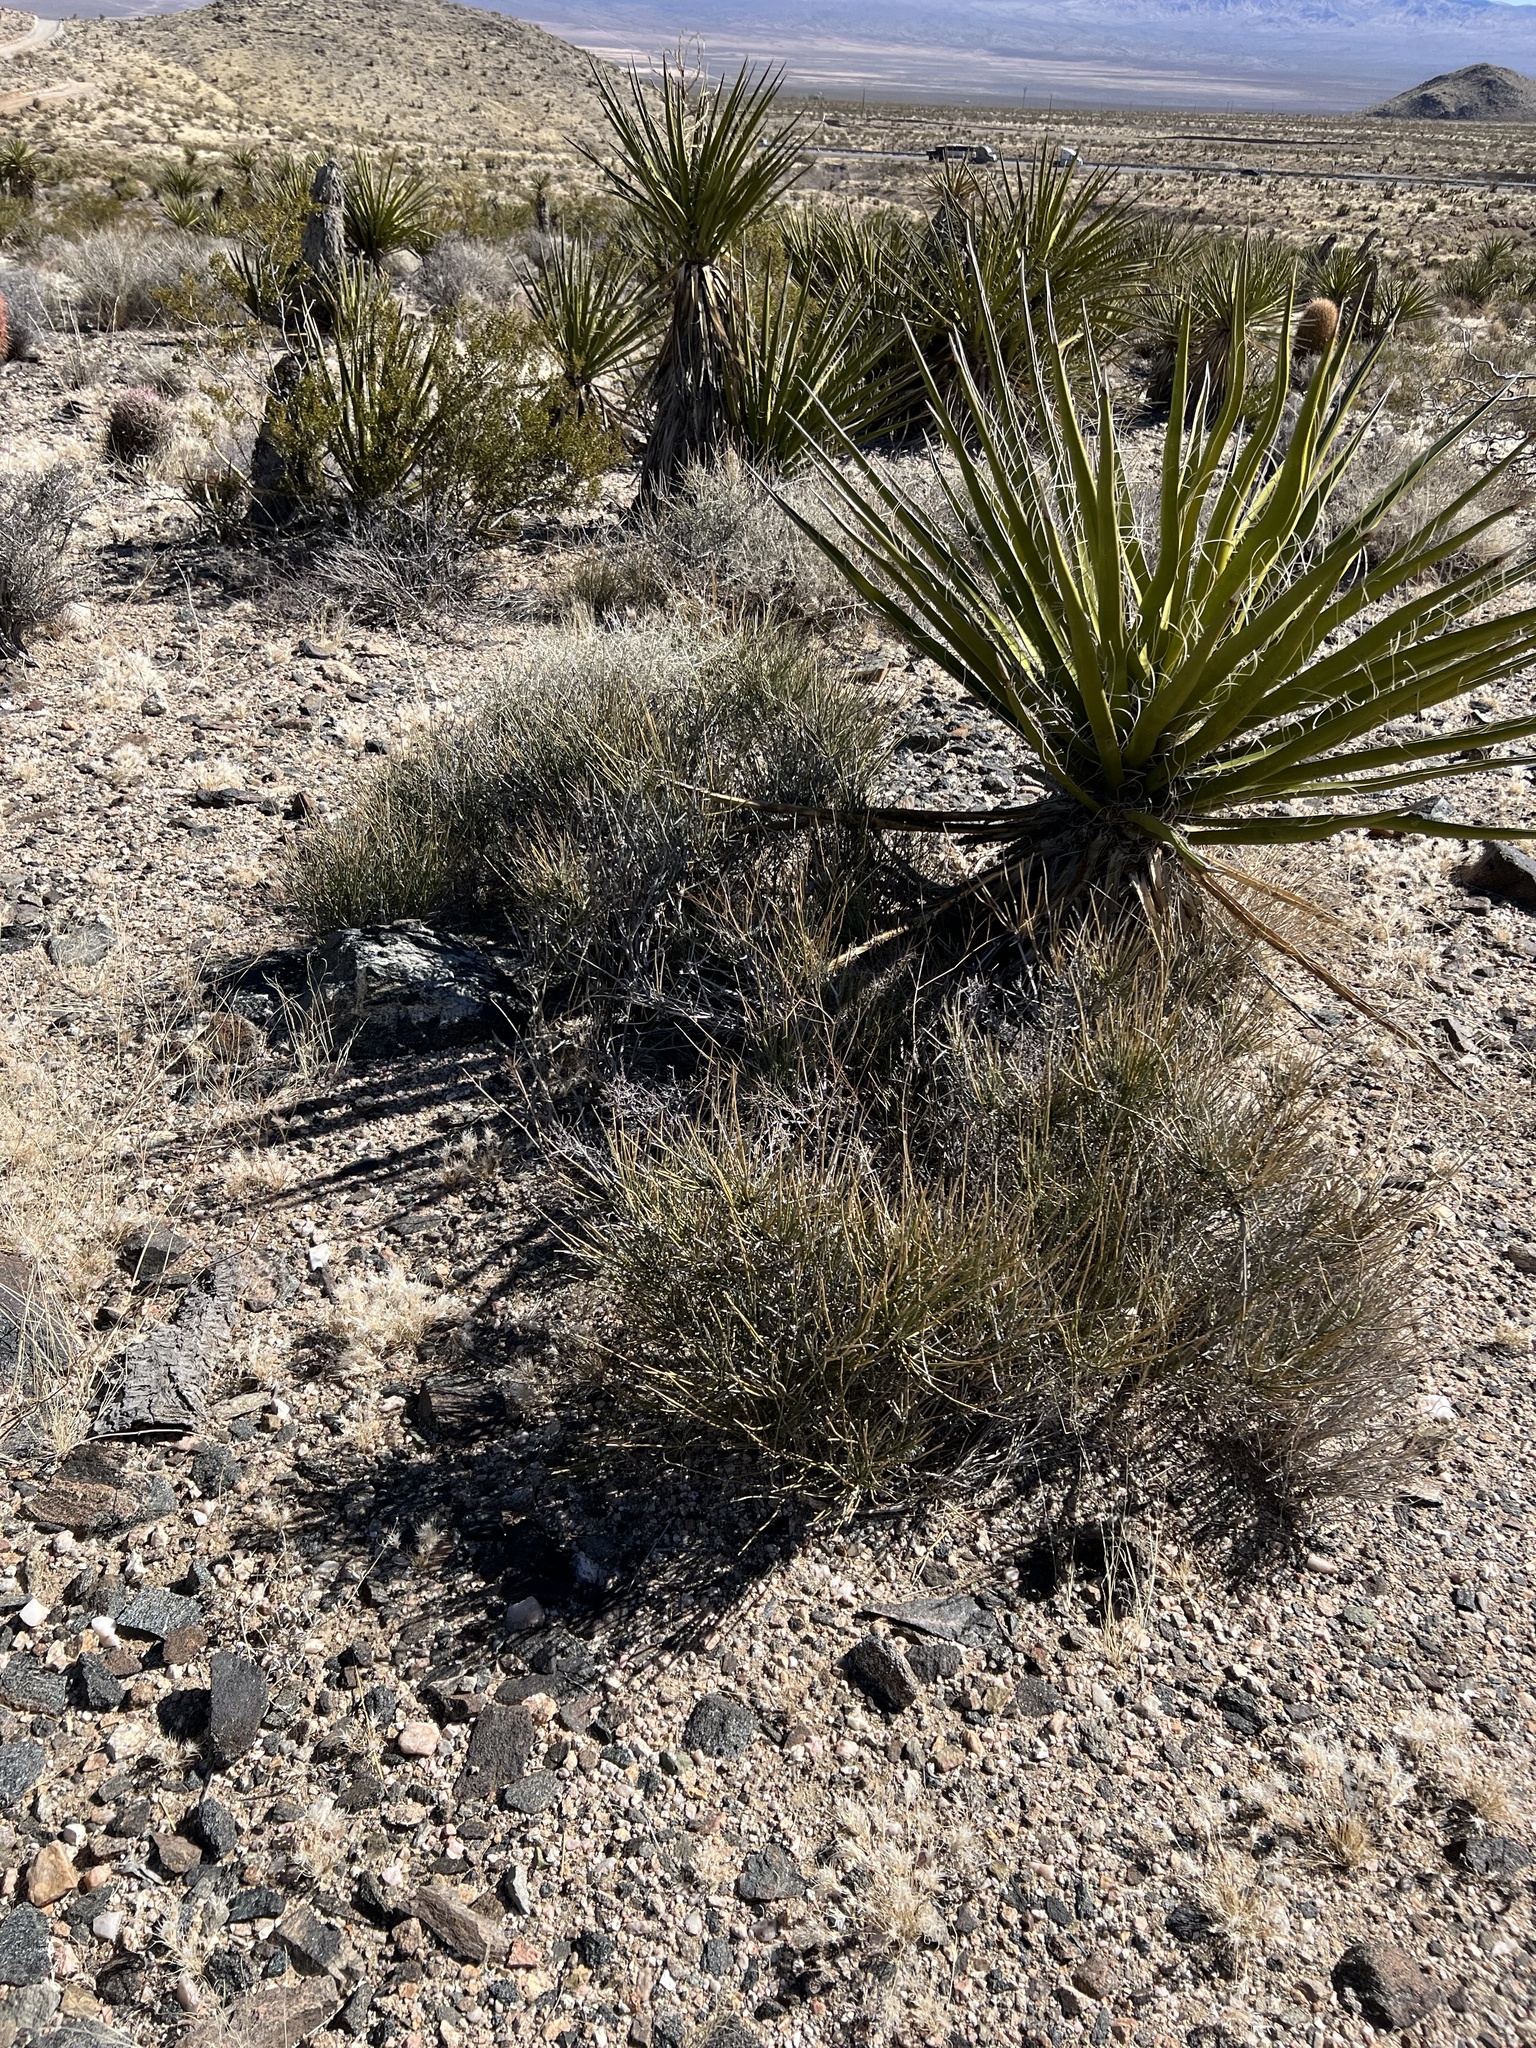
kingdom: Plantae
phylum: Tracheophyta
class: Gnetopsida
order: Ephedrales
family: Ephedraceae
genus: Ephedra
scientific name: Ephedra nevadensis
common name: Gray ephedra
